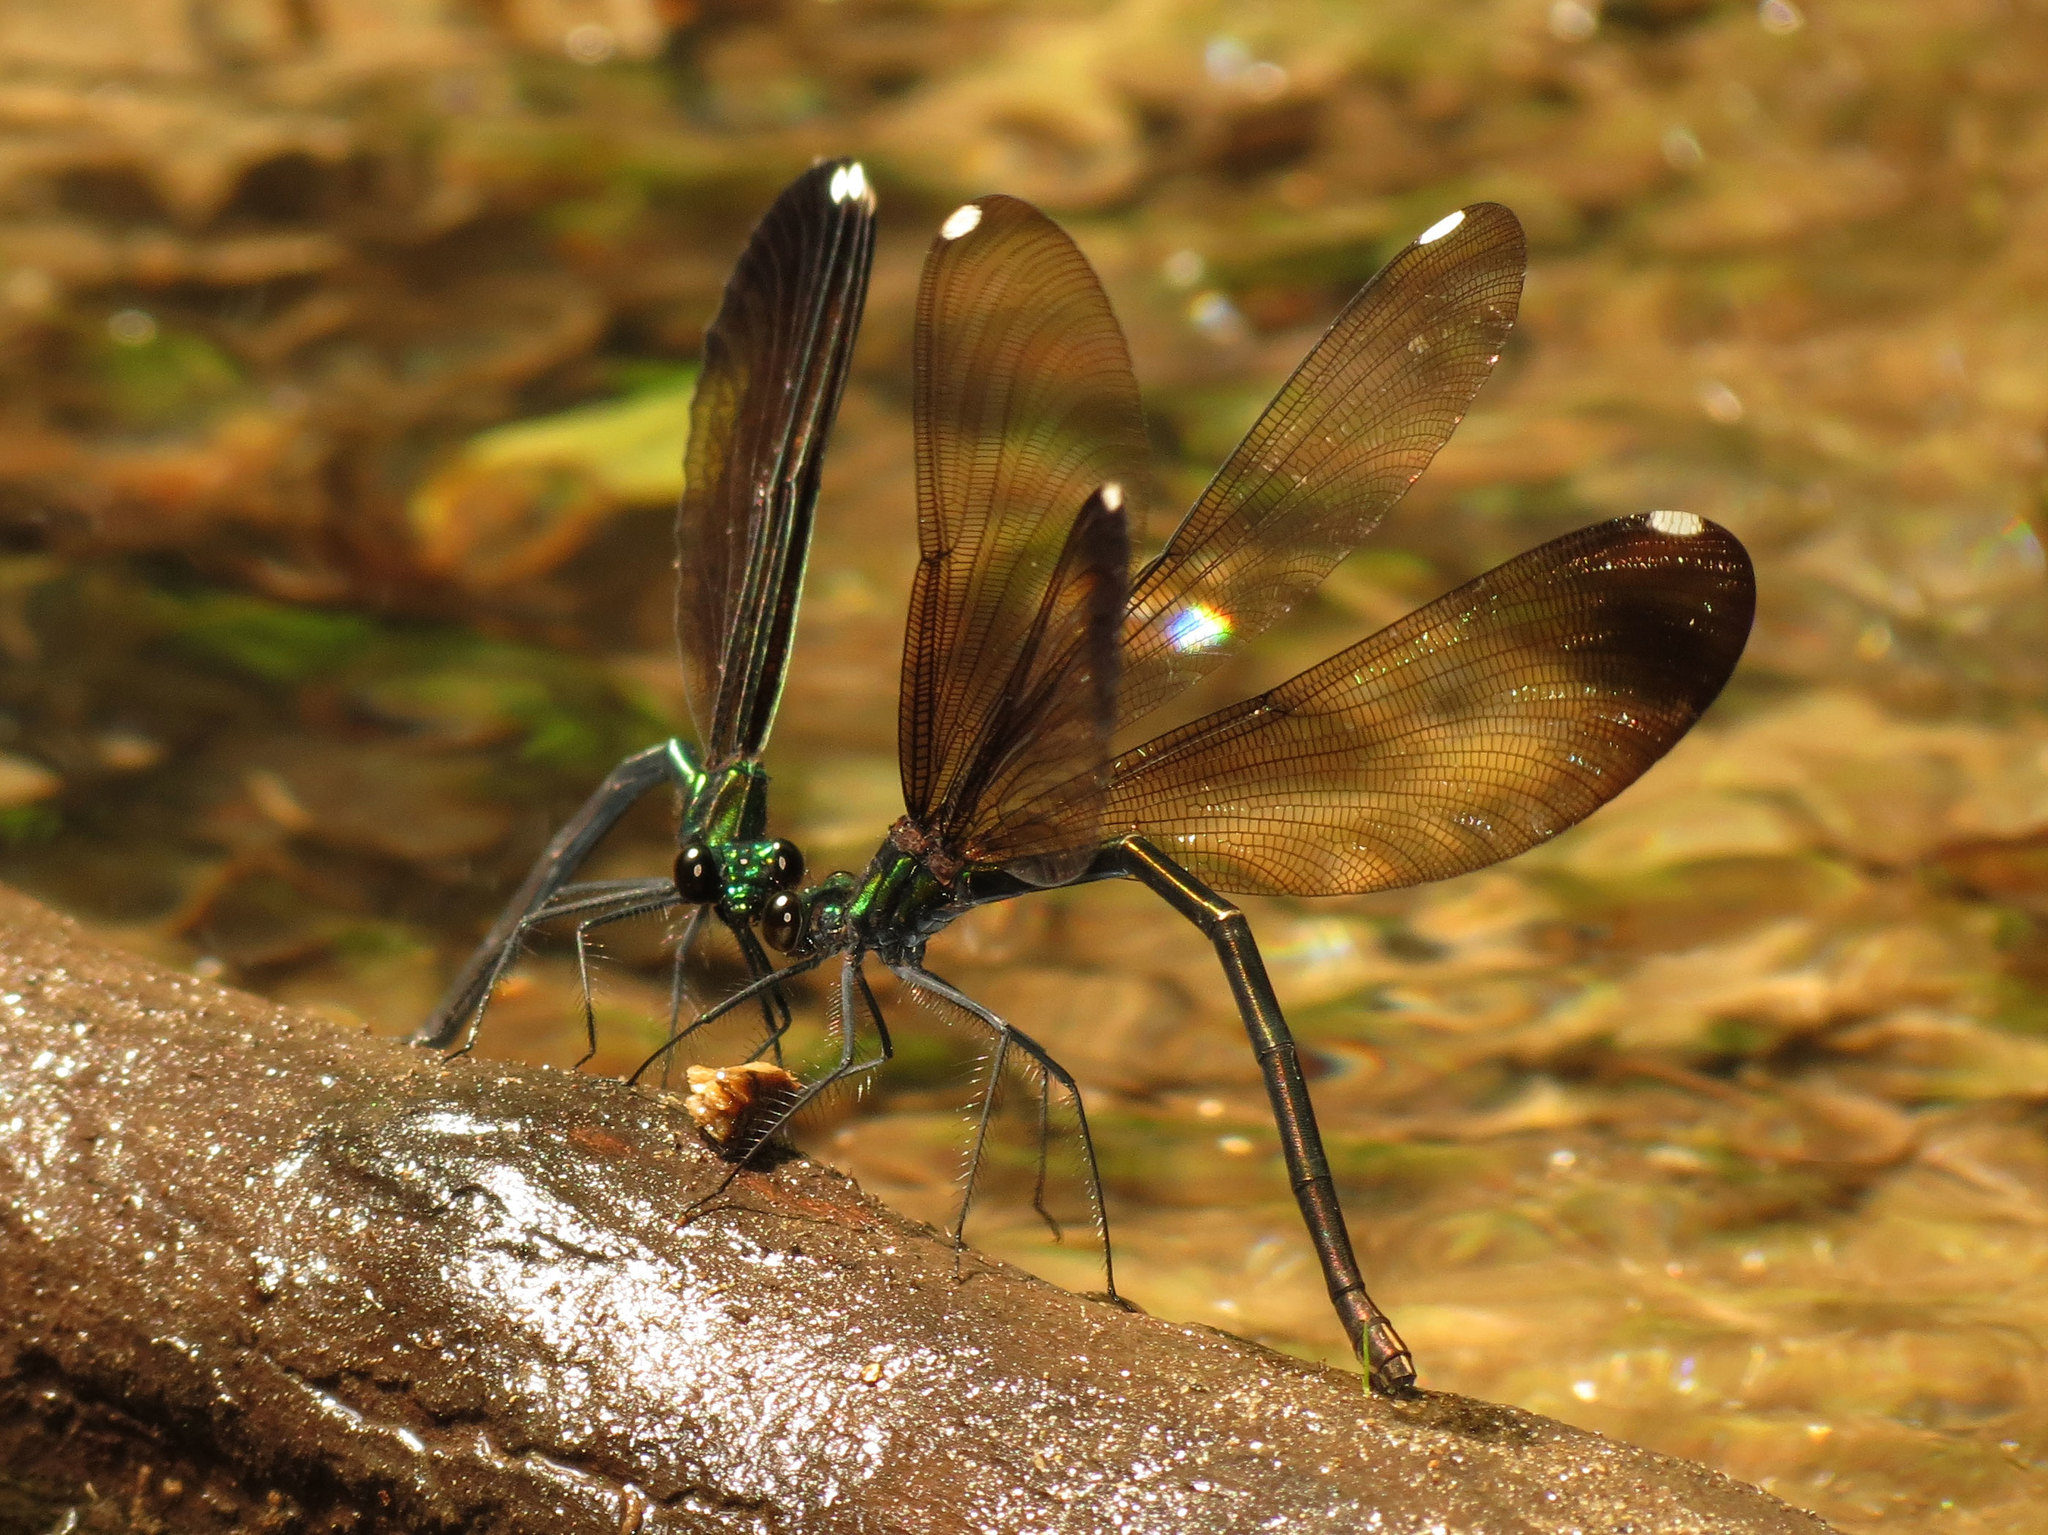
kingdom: Animalia
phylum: Arthropoda
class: Insecta
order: Odonata
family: Calopterygidae
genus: Calopteryx
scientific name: Calopteryx maculata
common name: Ebony jewelwing
